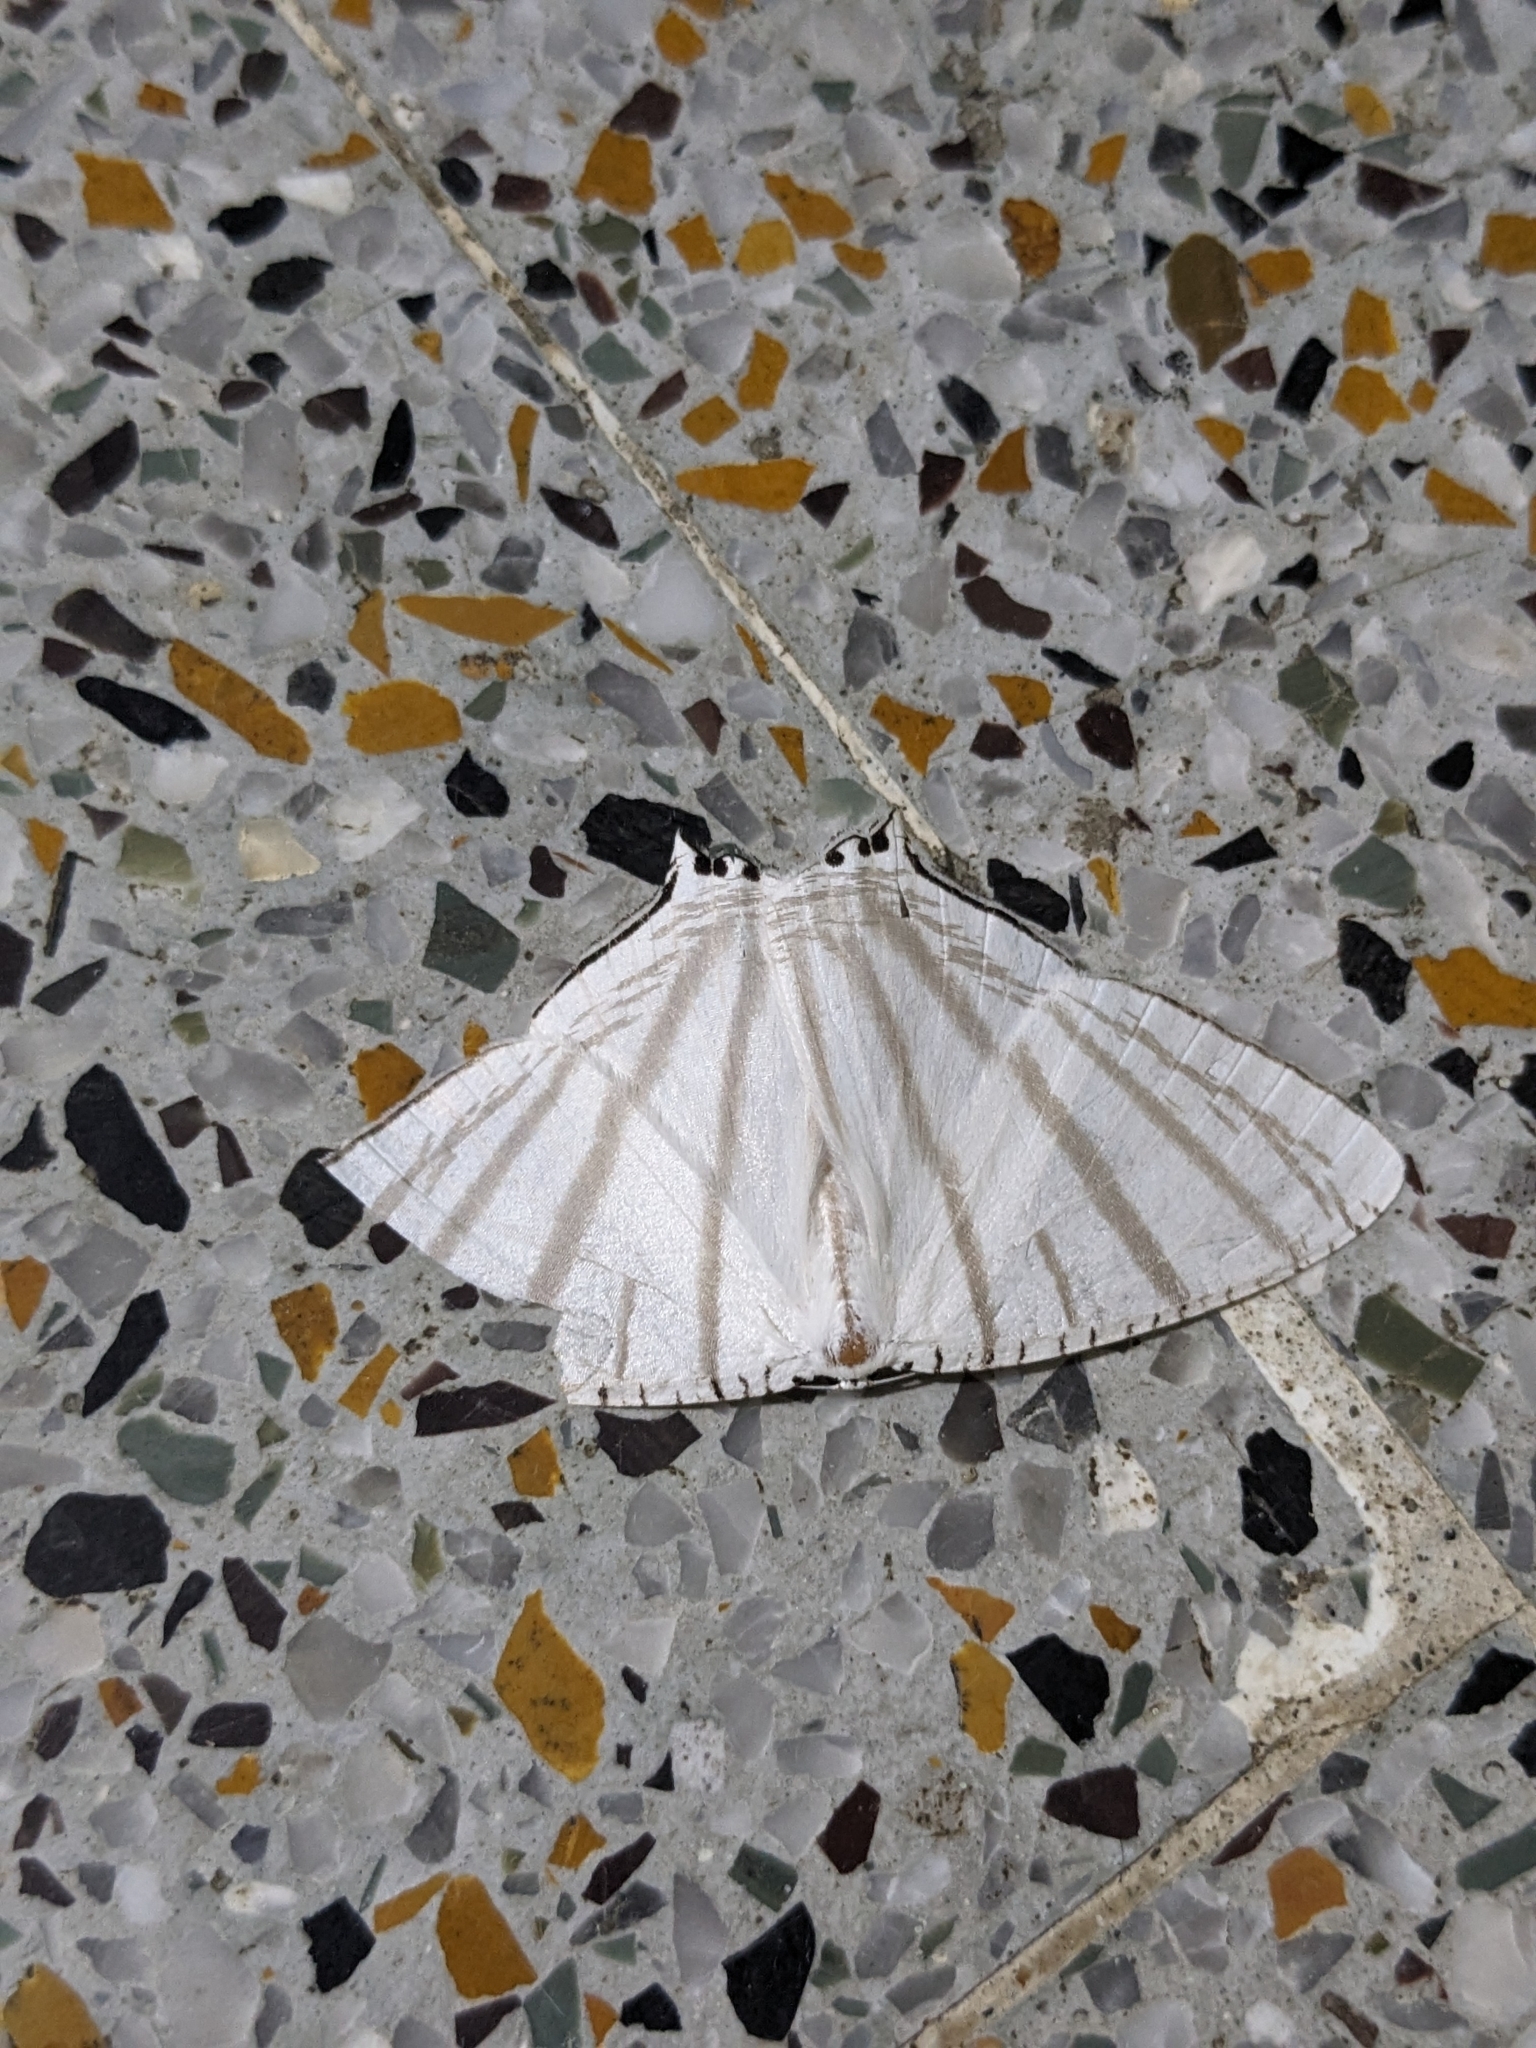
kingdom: Animalia
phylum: Arthropoda
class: Insecta
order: Lepidoptera
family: Uraniidae
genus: Urapteroides
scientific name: Urapteroides astheniata
